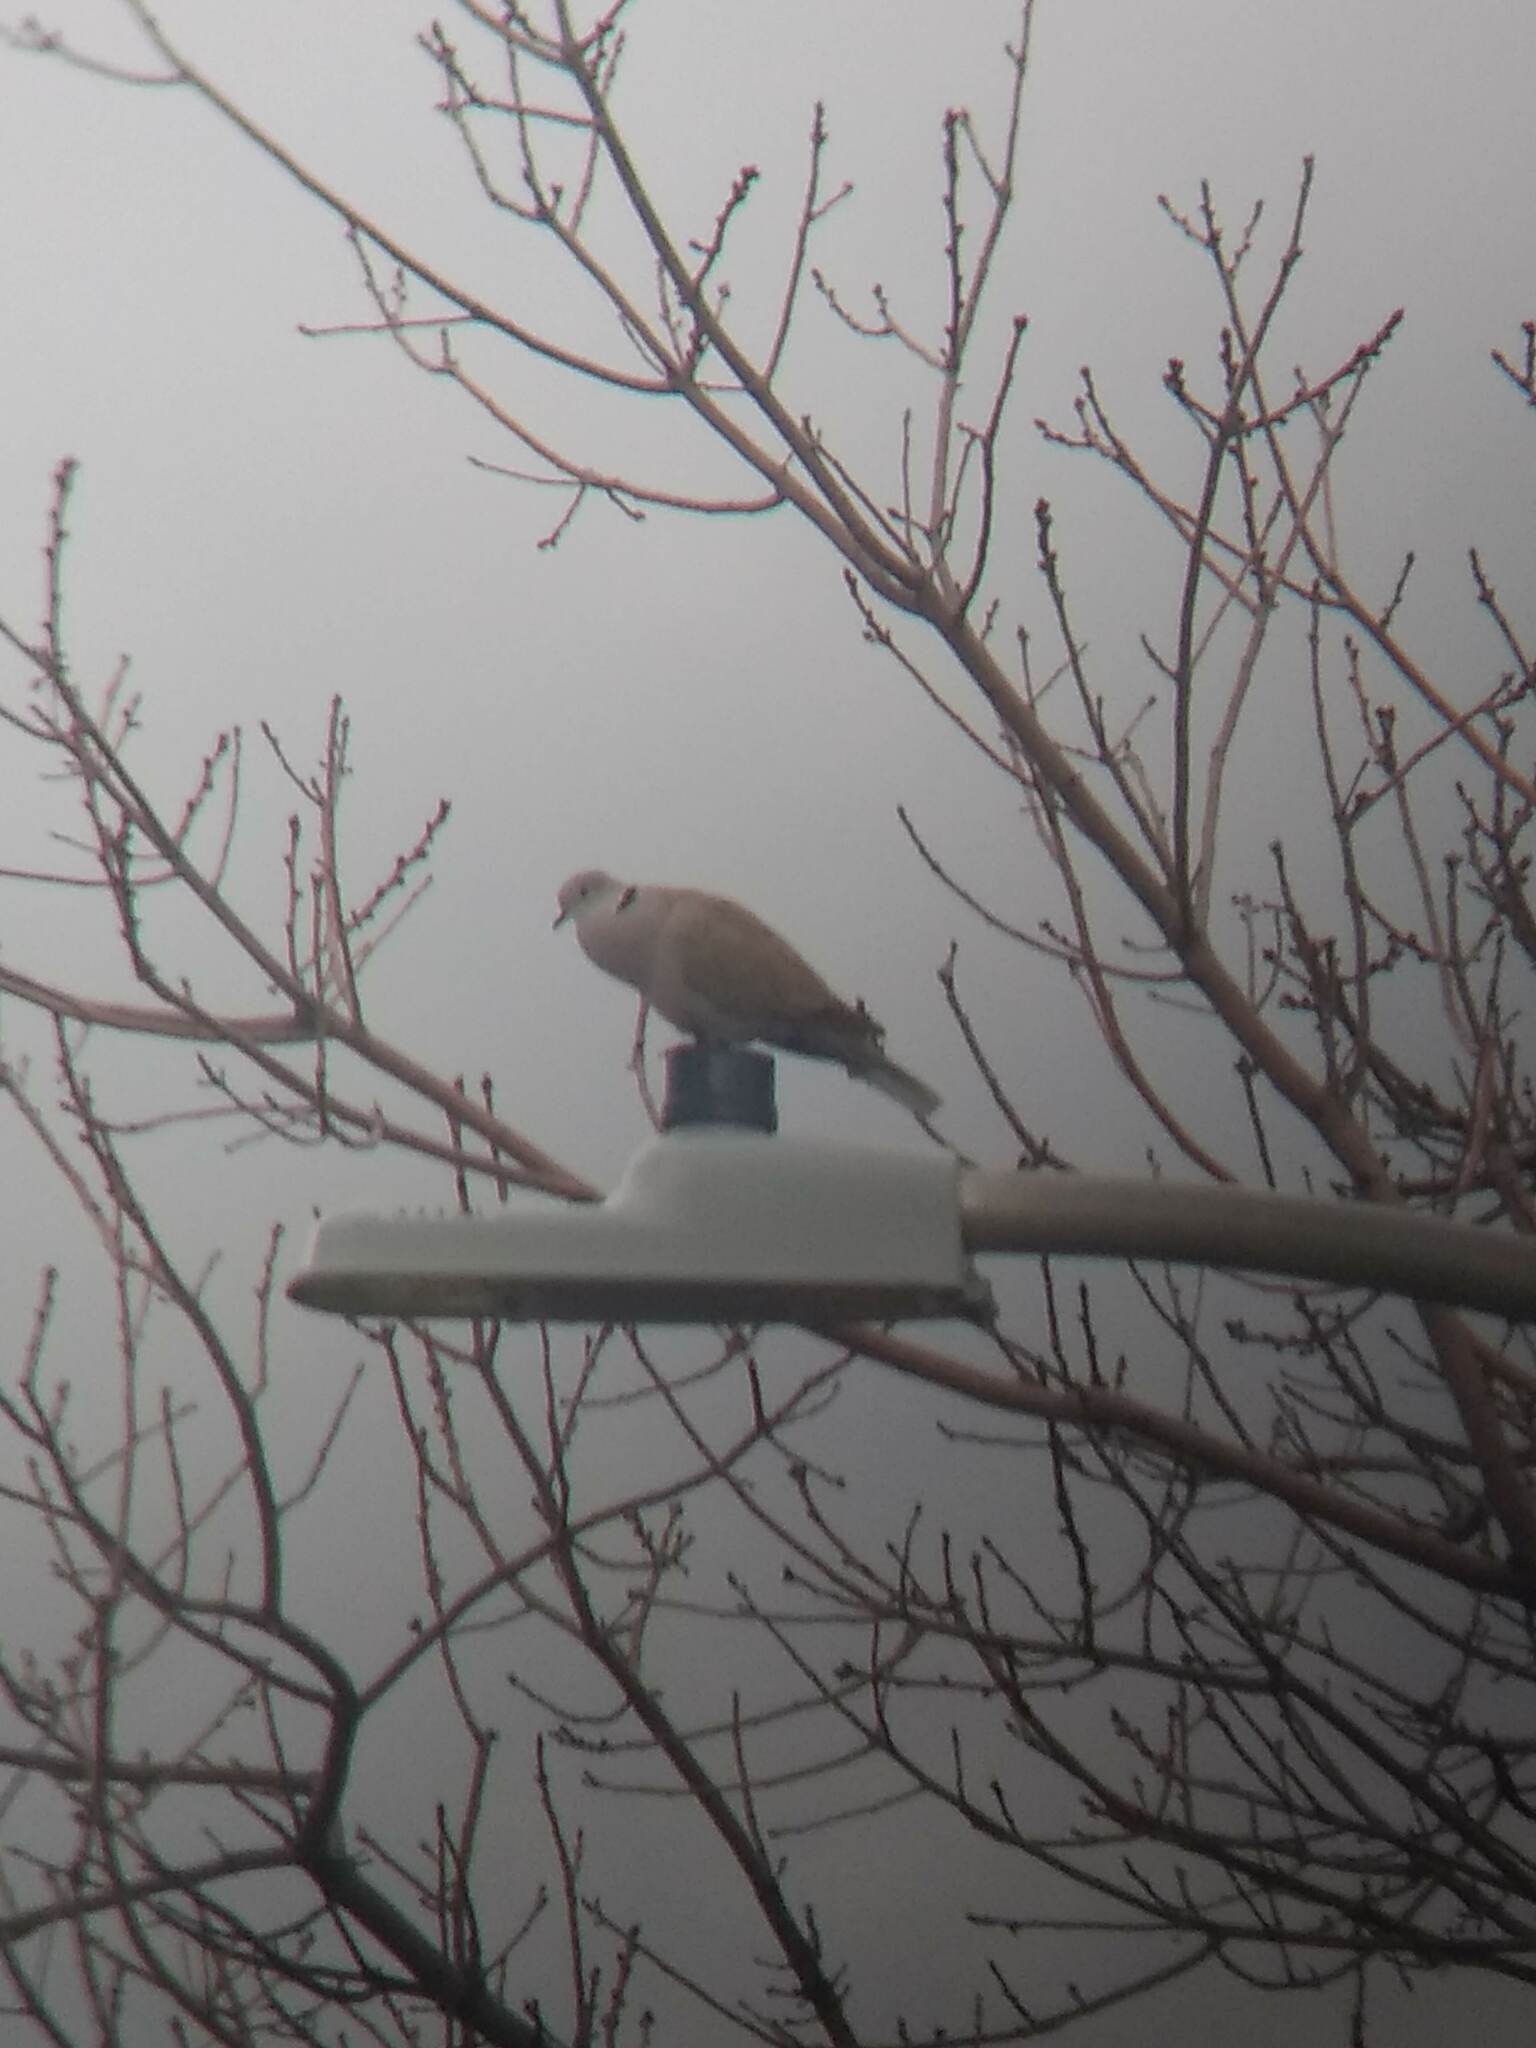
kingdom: Animalia
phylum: Chordata
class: Aves
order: Columbiformes
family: Columbidae
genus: Streptopelia
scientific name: Streptopelia decaocto
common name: Eurasian collared dove
